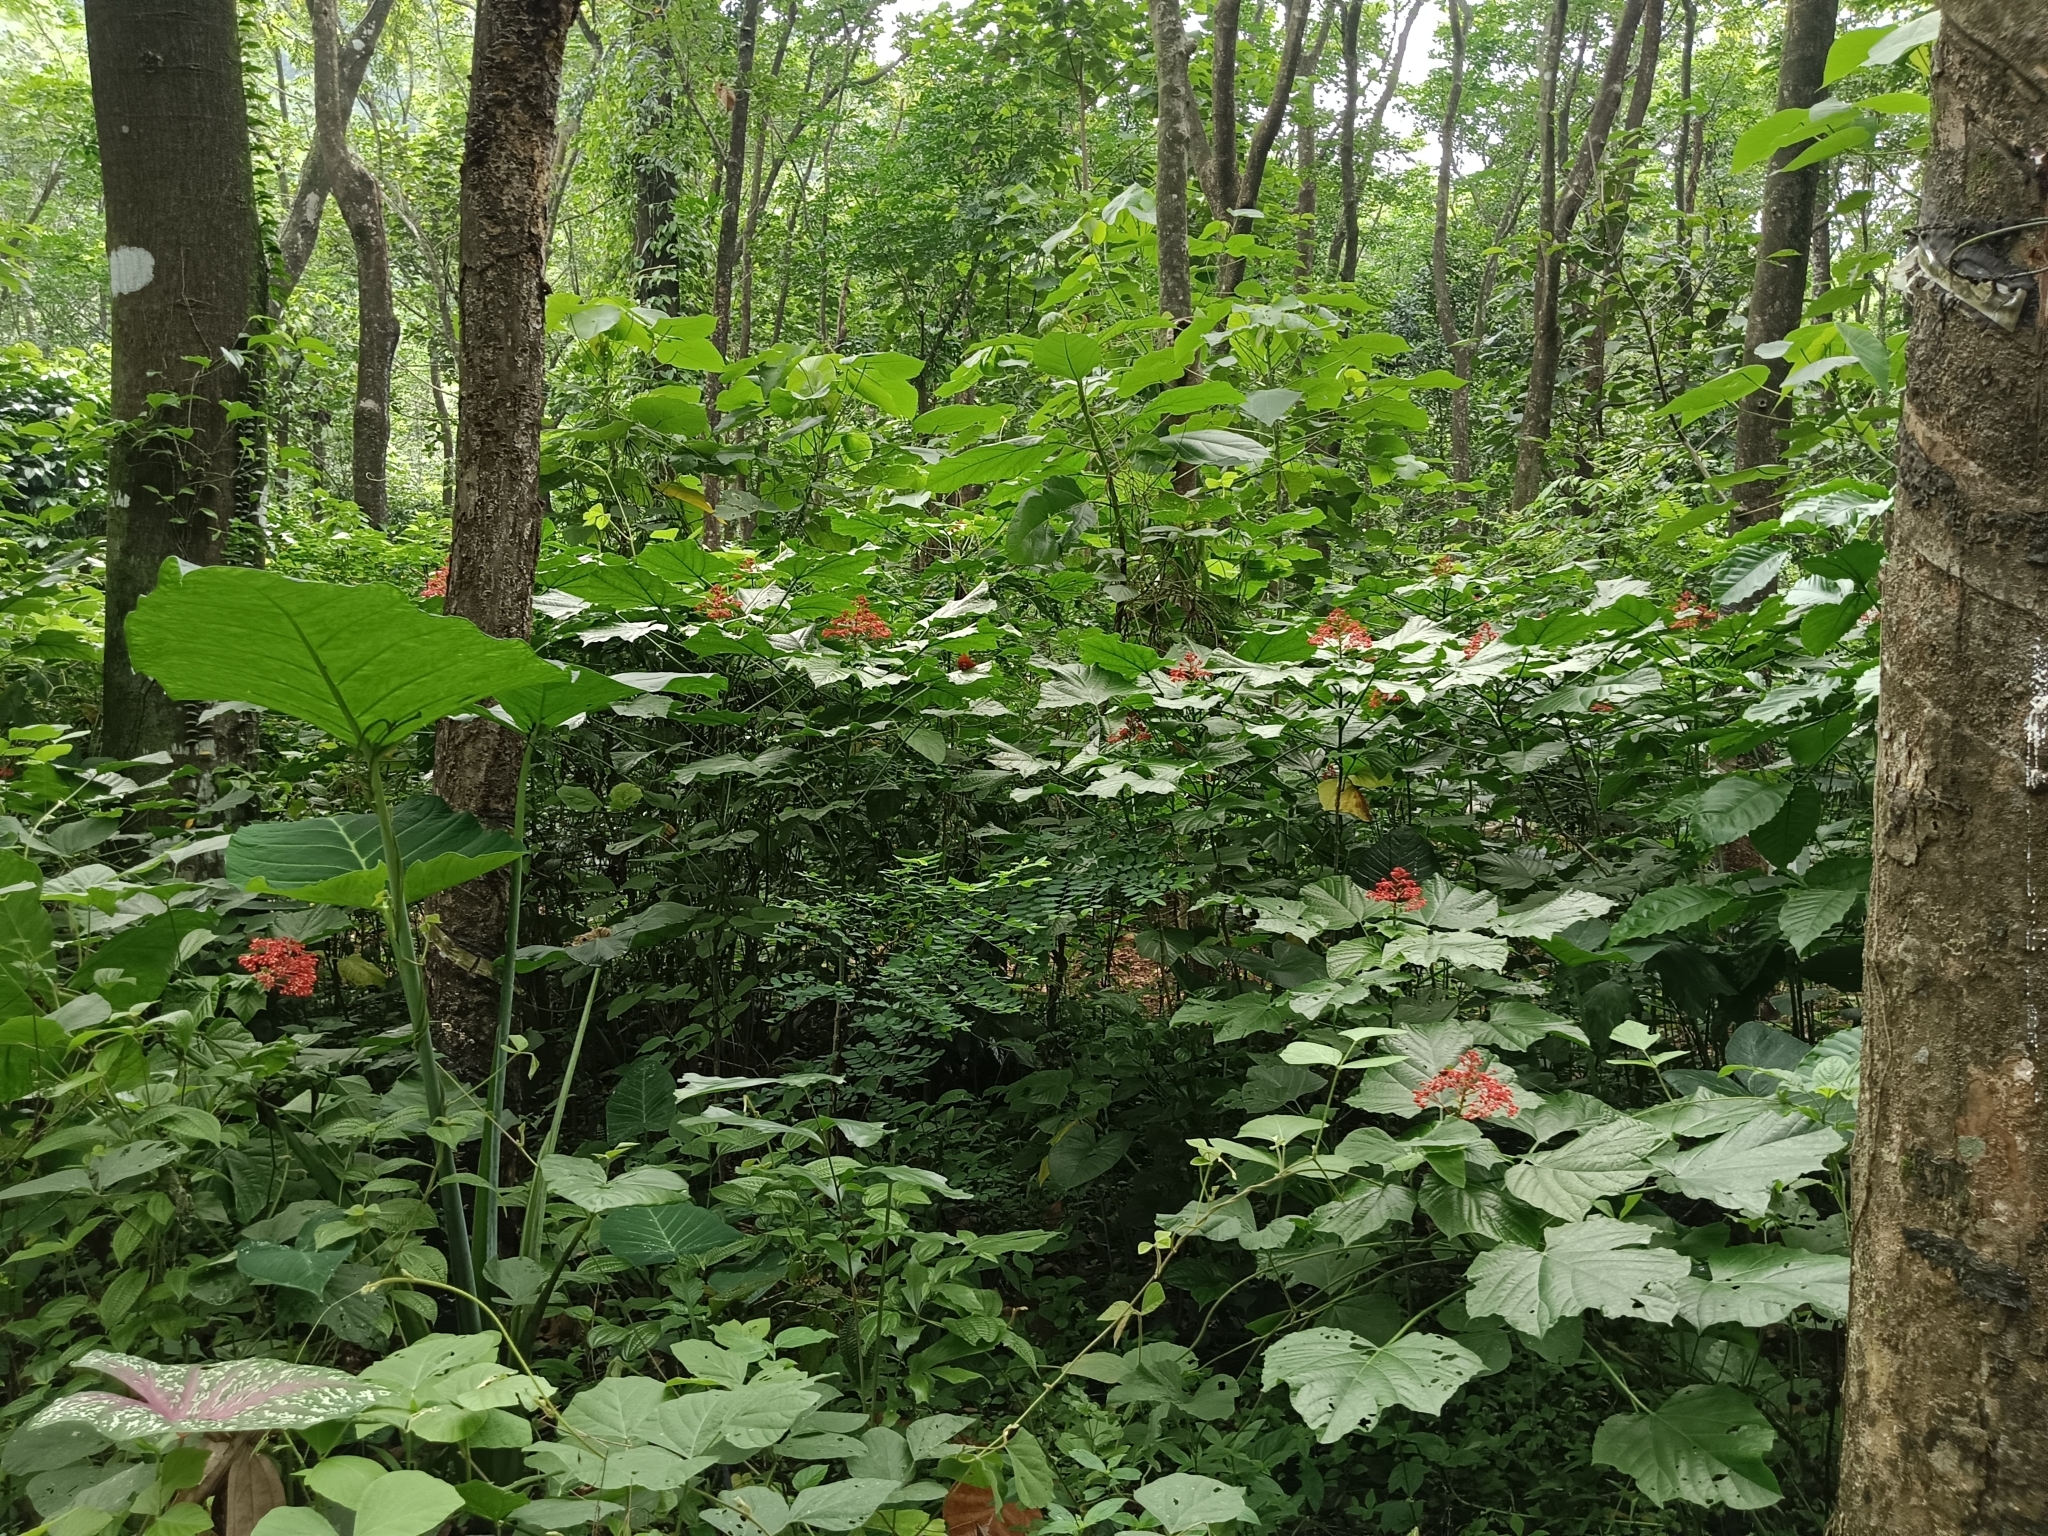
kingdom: Plantae
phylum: Tracheophyta
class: Magnoliopsida
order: Lamiales
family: Lamiaceae
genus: Clerodendrum
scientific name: Clerodendrum paniculatum
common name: Pagoda-flower
